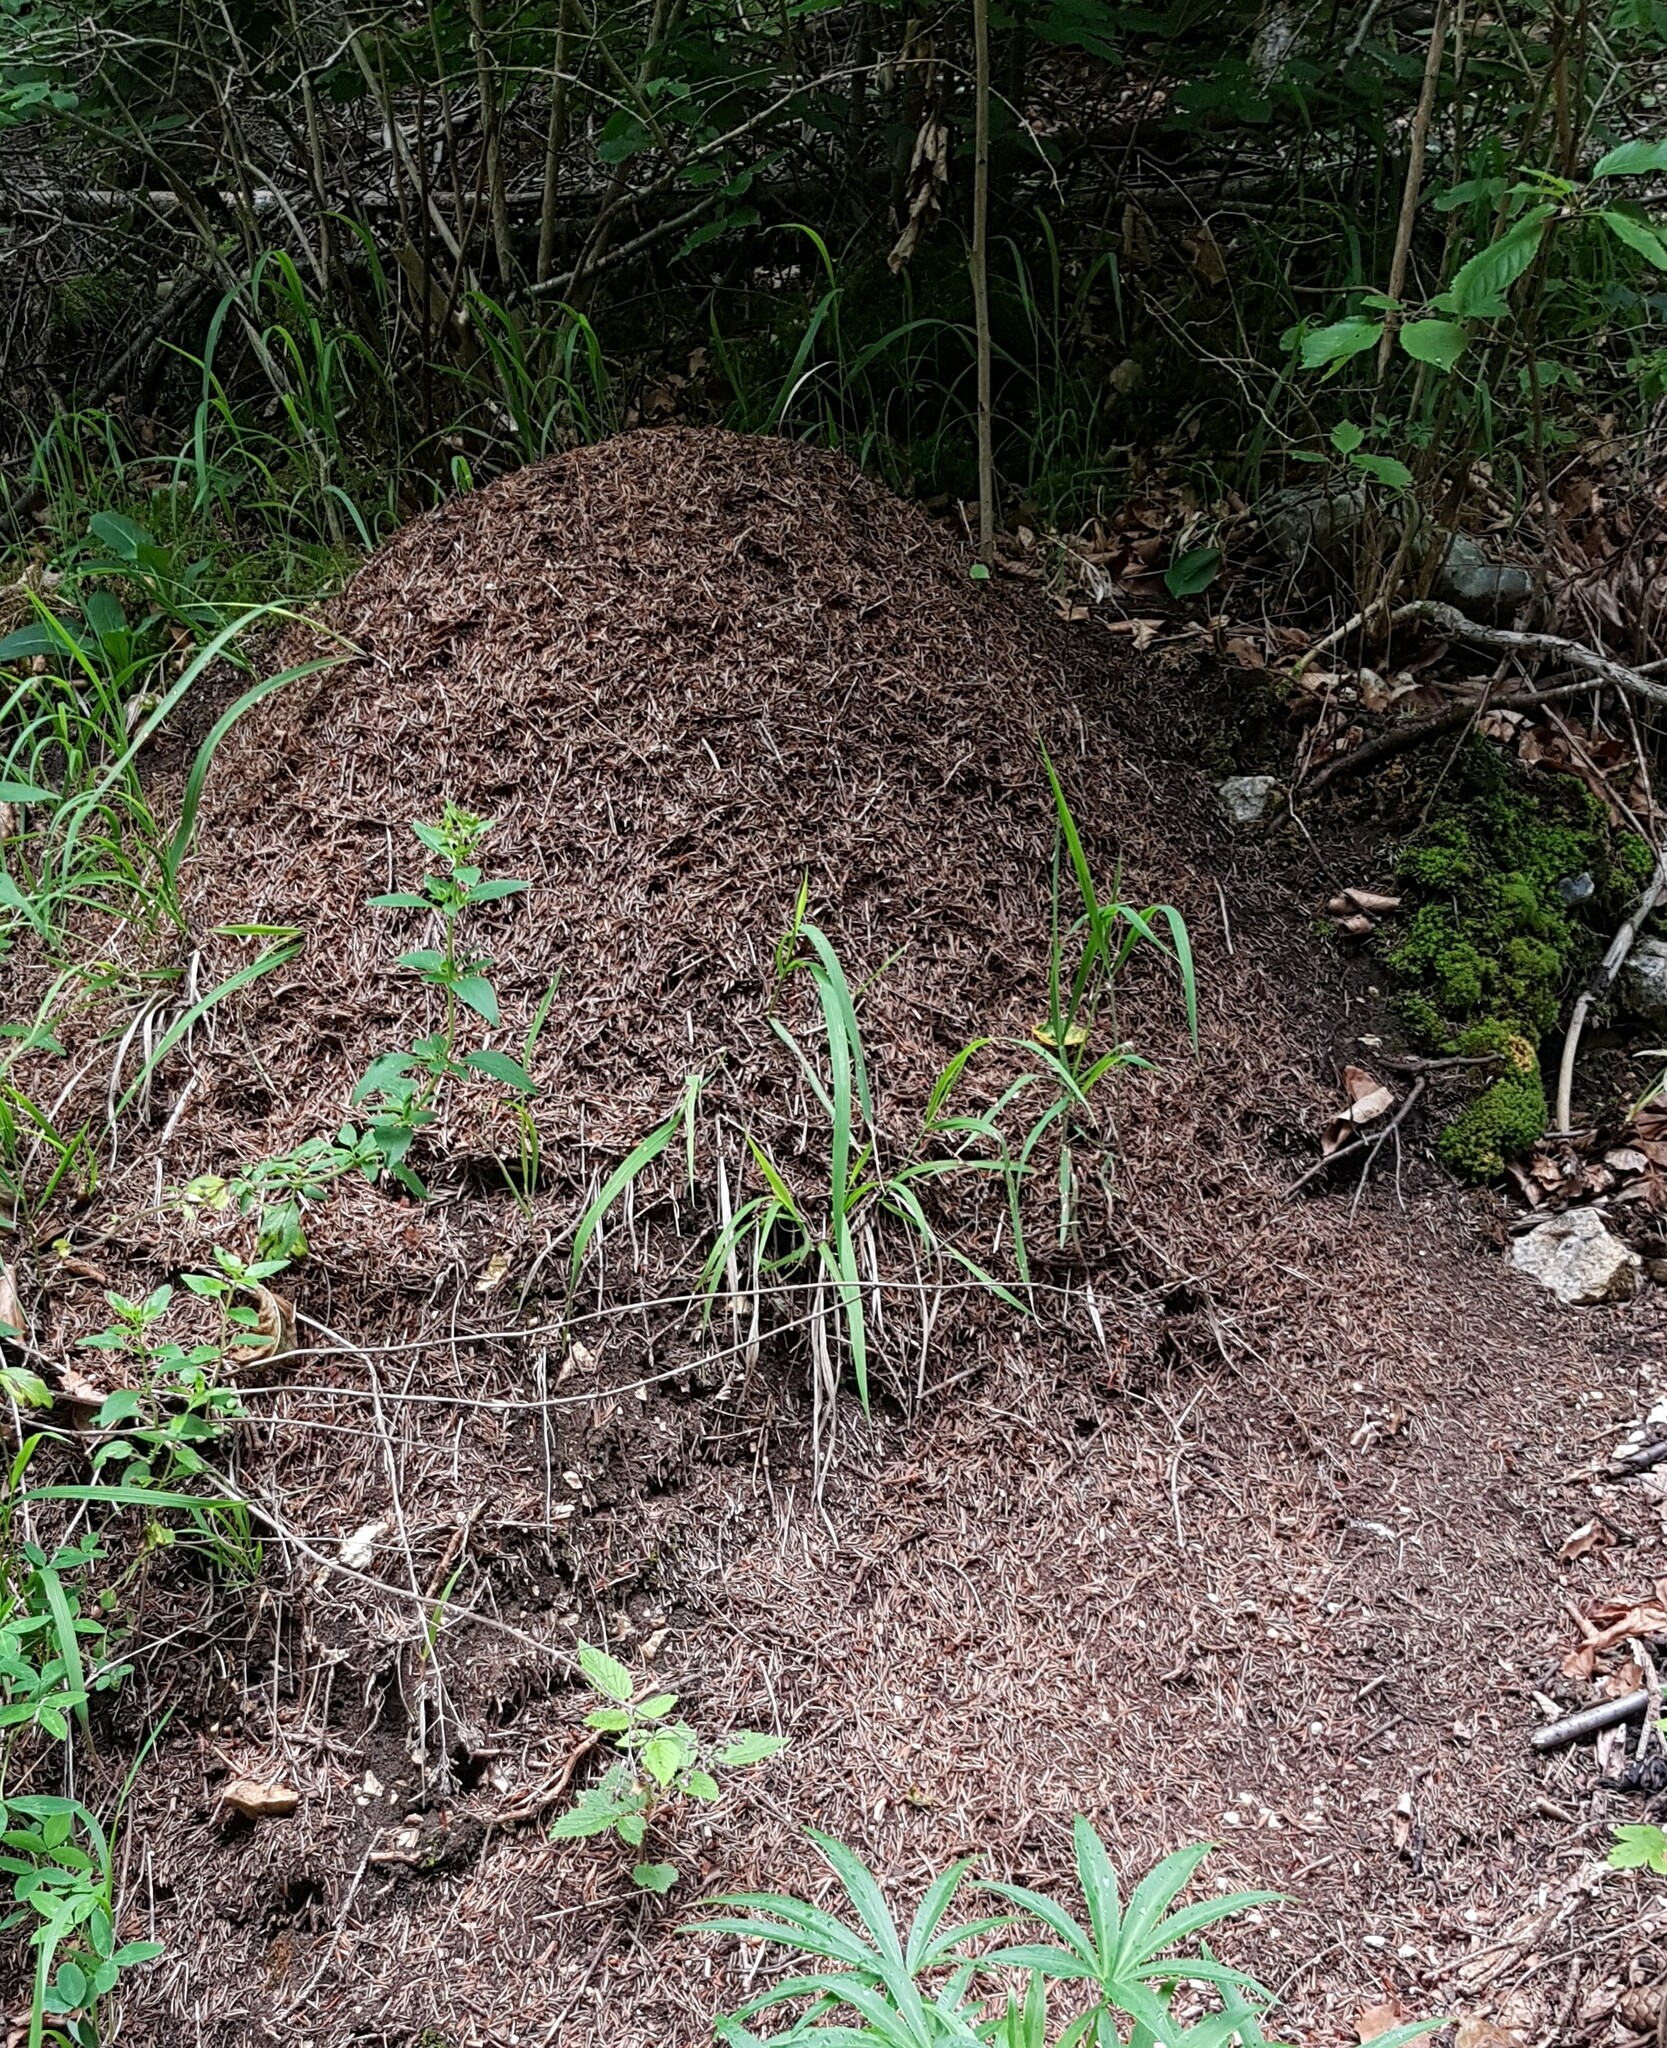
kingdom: Animalia
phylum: Arthropoda
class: Insecta
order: Hymenoptera
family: Formicidae
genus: Formica
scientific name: Formica
